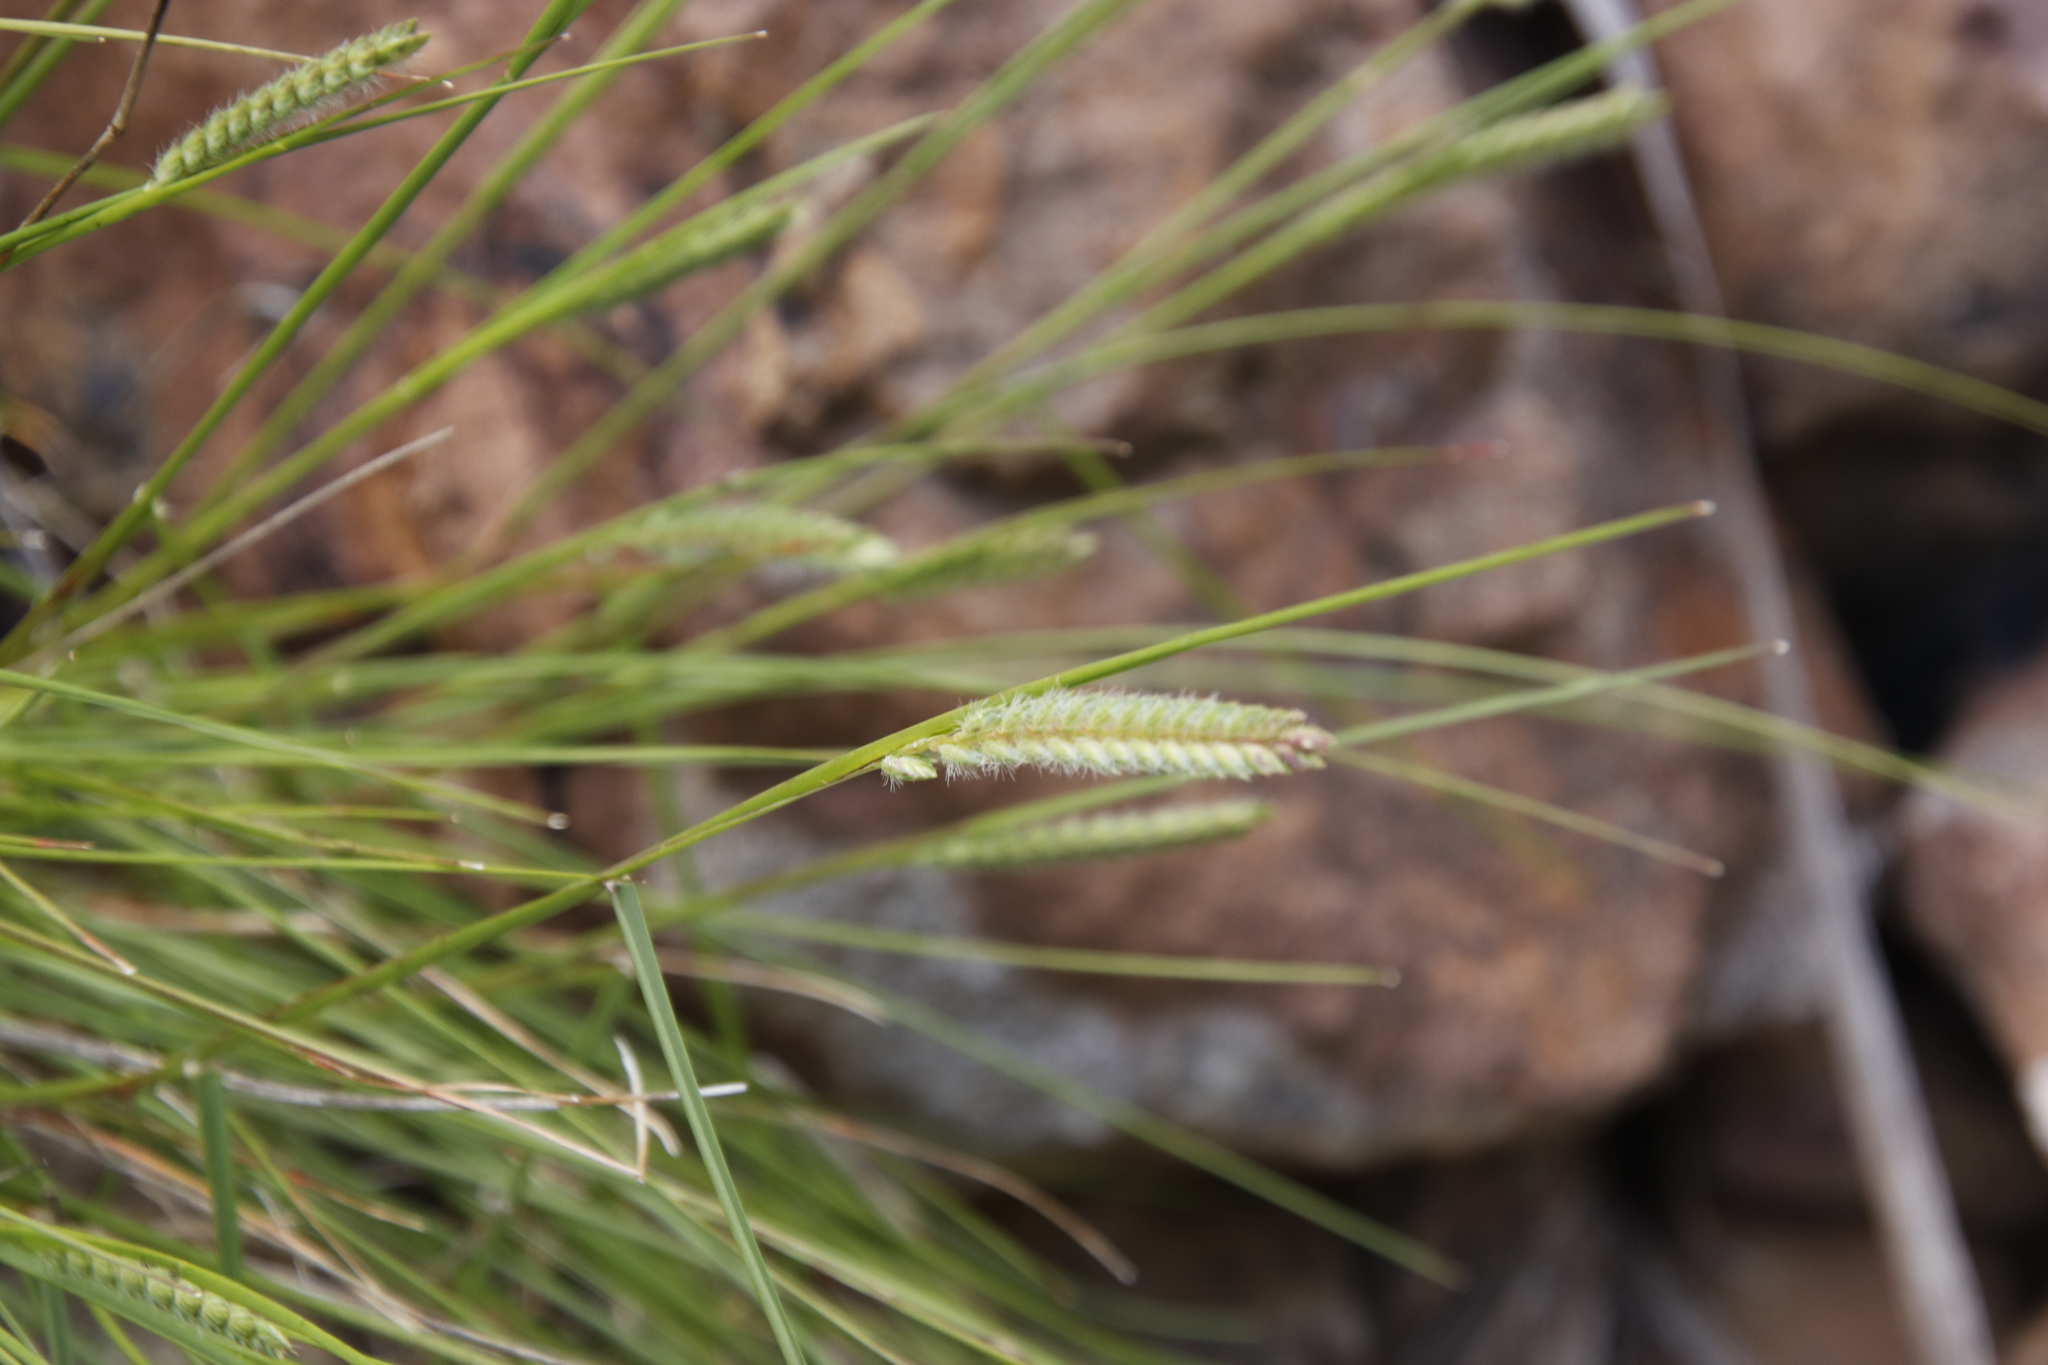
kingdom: Plantae
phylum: Tracheophyta
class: Liliopsida
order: Poales
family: Poaceae
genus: Tribolium
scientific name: Tribolium brachystachyum
